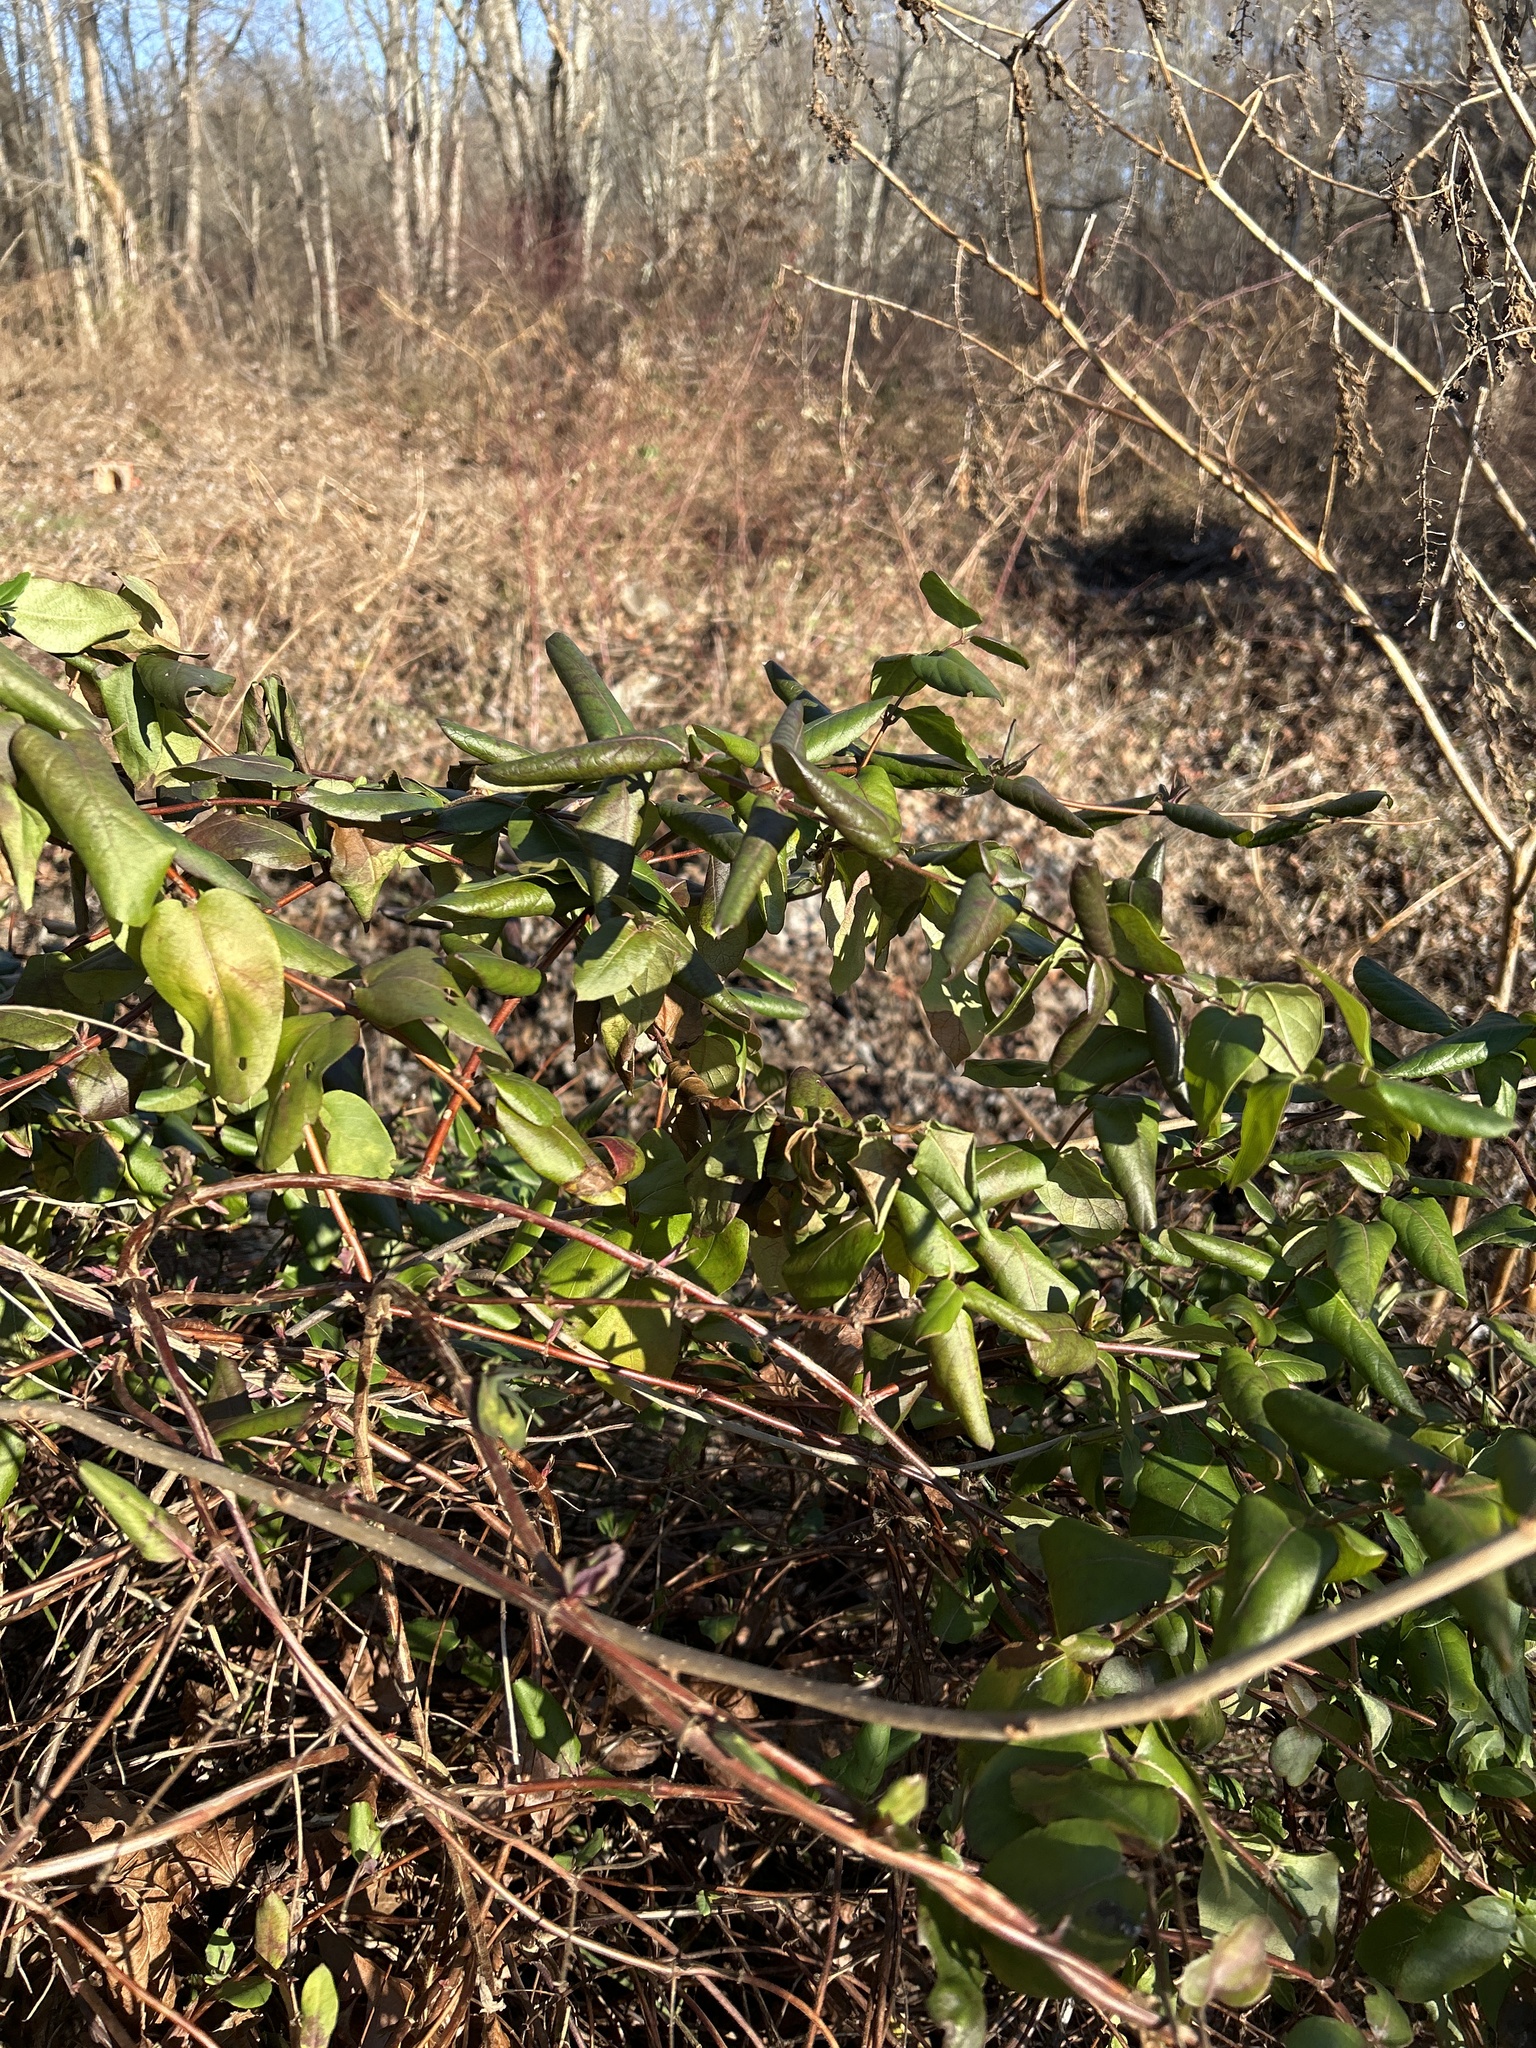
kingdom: Plantae
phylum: Tracheophyta
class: Magnoliopsida
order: Dipsacales
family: Caprifoliaceae
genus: Lonicera
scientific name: Lonicera japonica
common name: Japanese honeysuckle
